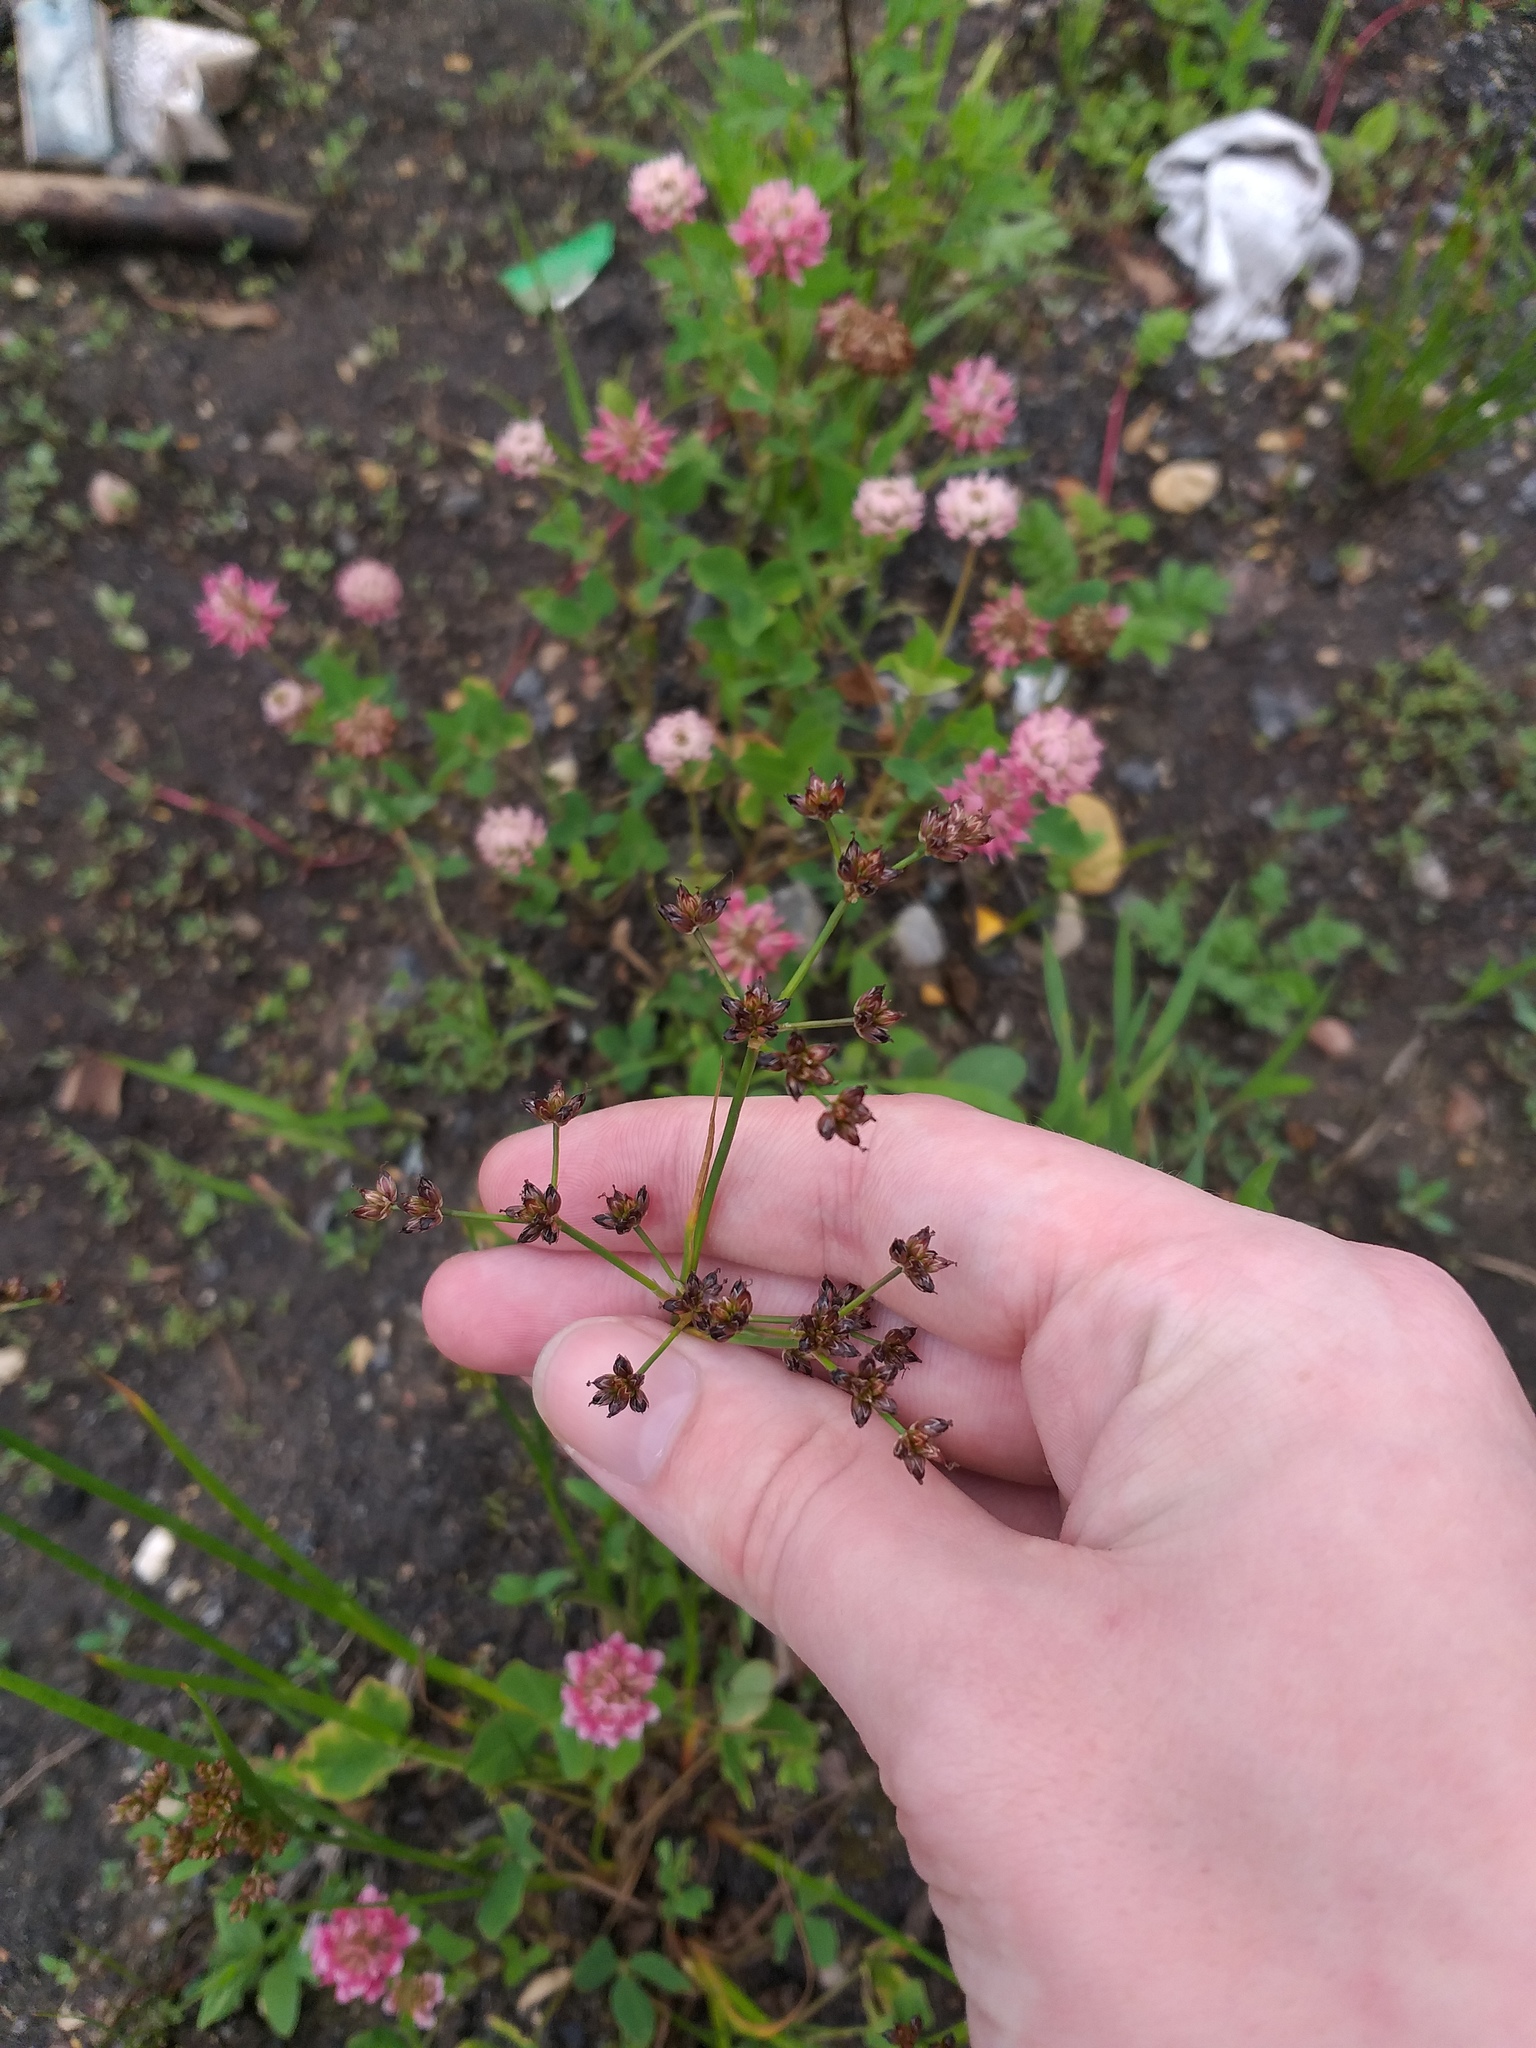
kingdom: Plantae
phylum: Tracheophyta
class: Liliopsida
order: Poales
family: Juncaceae
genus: Juncus
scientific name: Juncus articulatus
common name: Jointed rush
